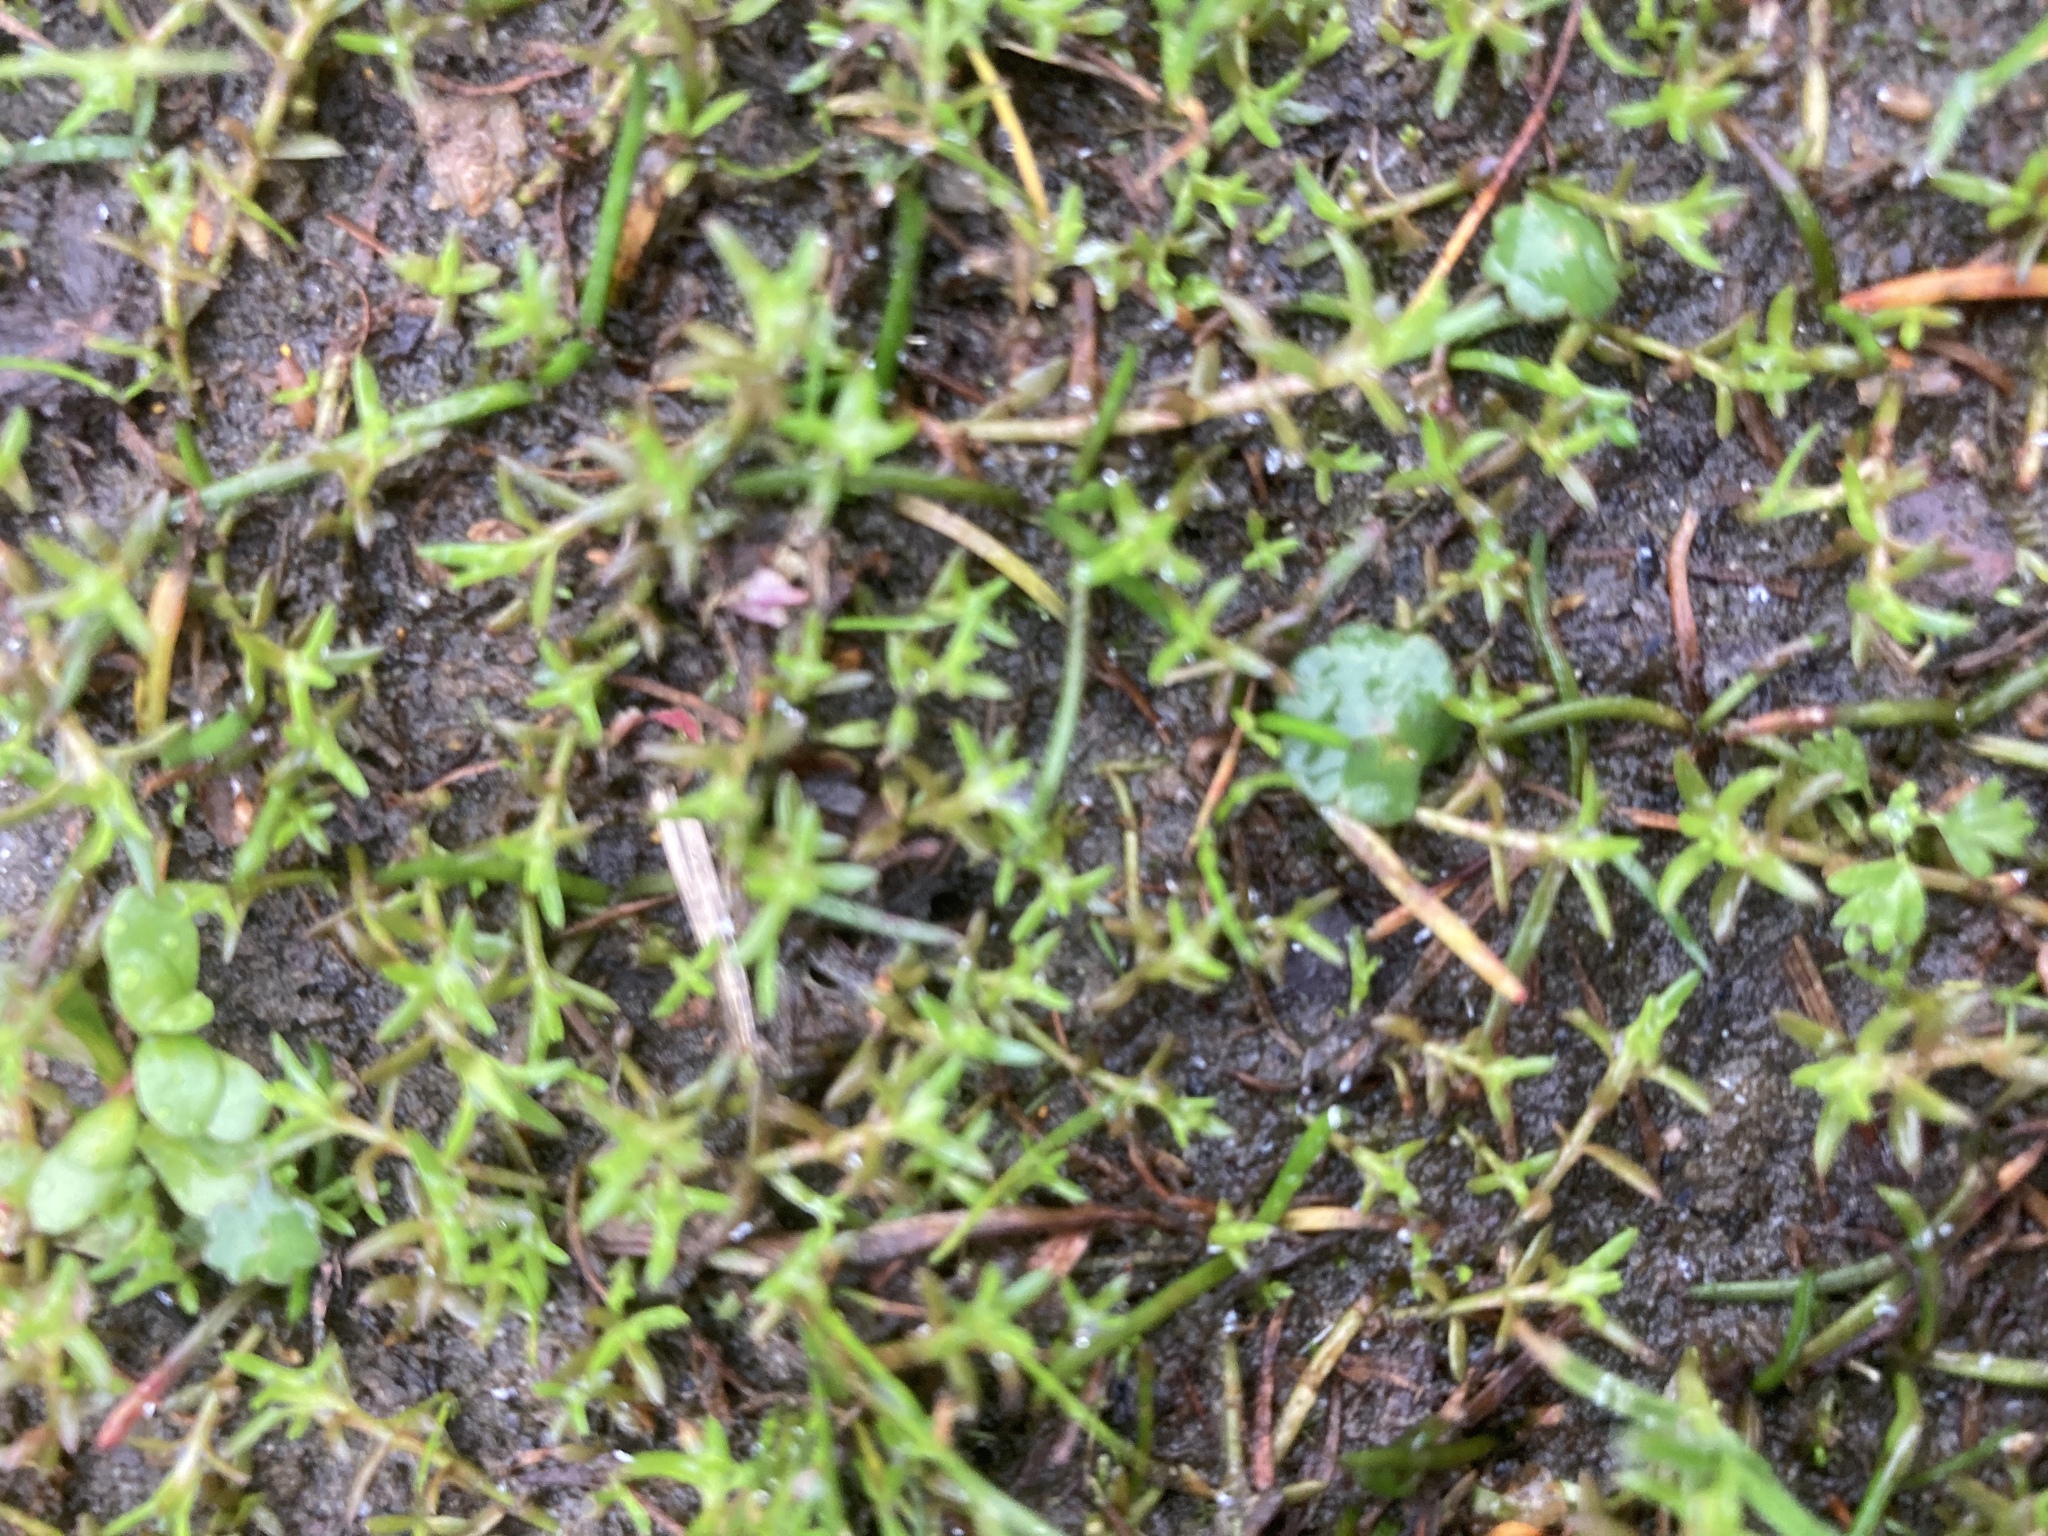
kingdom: Plantae
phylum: Tracheophyta
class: Magnoliopsida
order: Saxifragales
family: Crassulaceae
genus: Crassula
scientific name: Crassula helmsii
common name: New zealand pigmyweed
